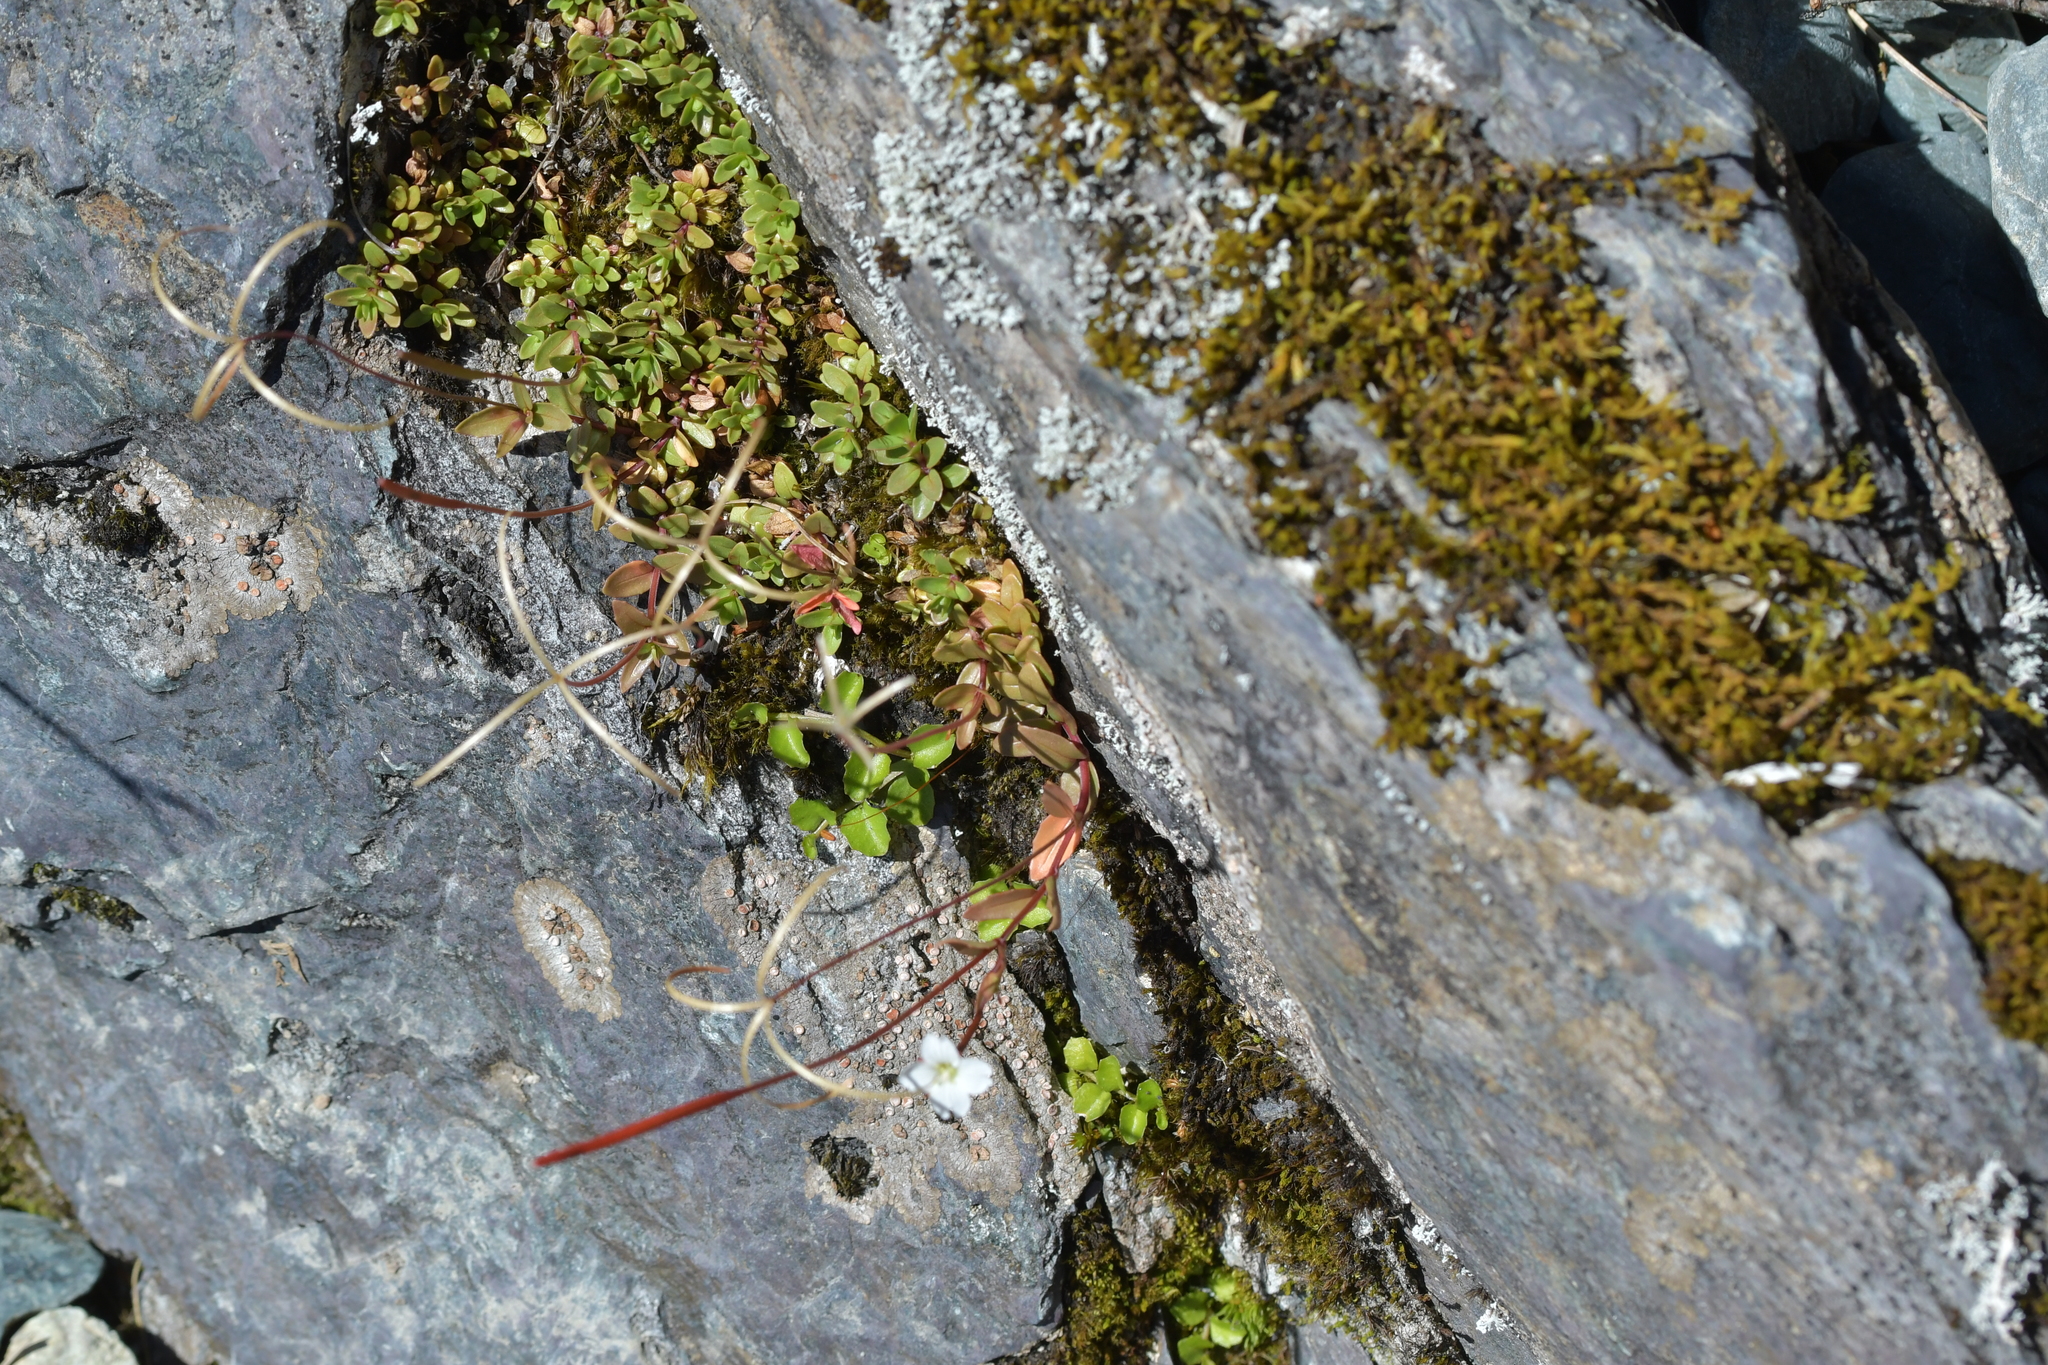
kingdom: Plantae
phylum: Tracheophyta
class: Magnoliopsida
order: Myrtales
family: Onagraceae
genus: Epilobium
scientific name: Epilobium alsinoides
